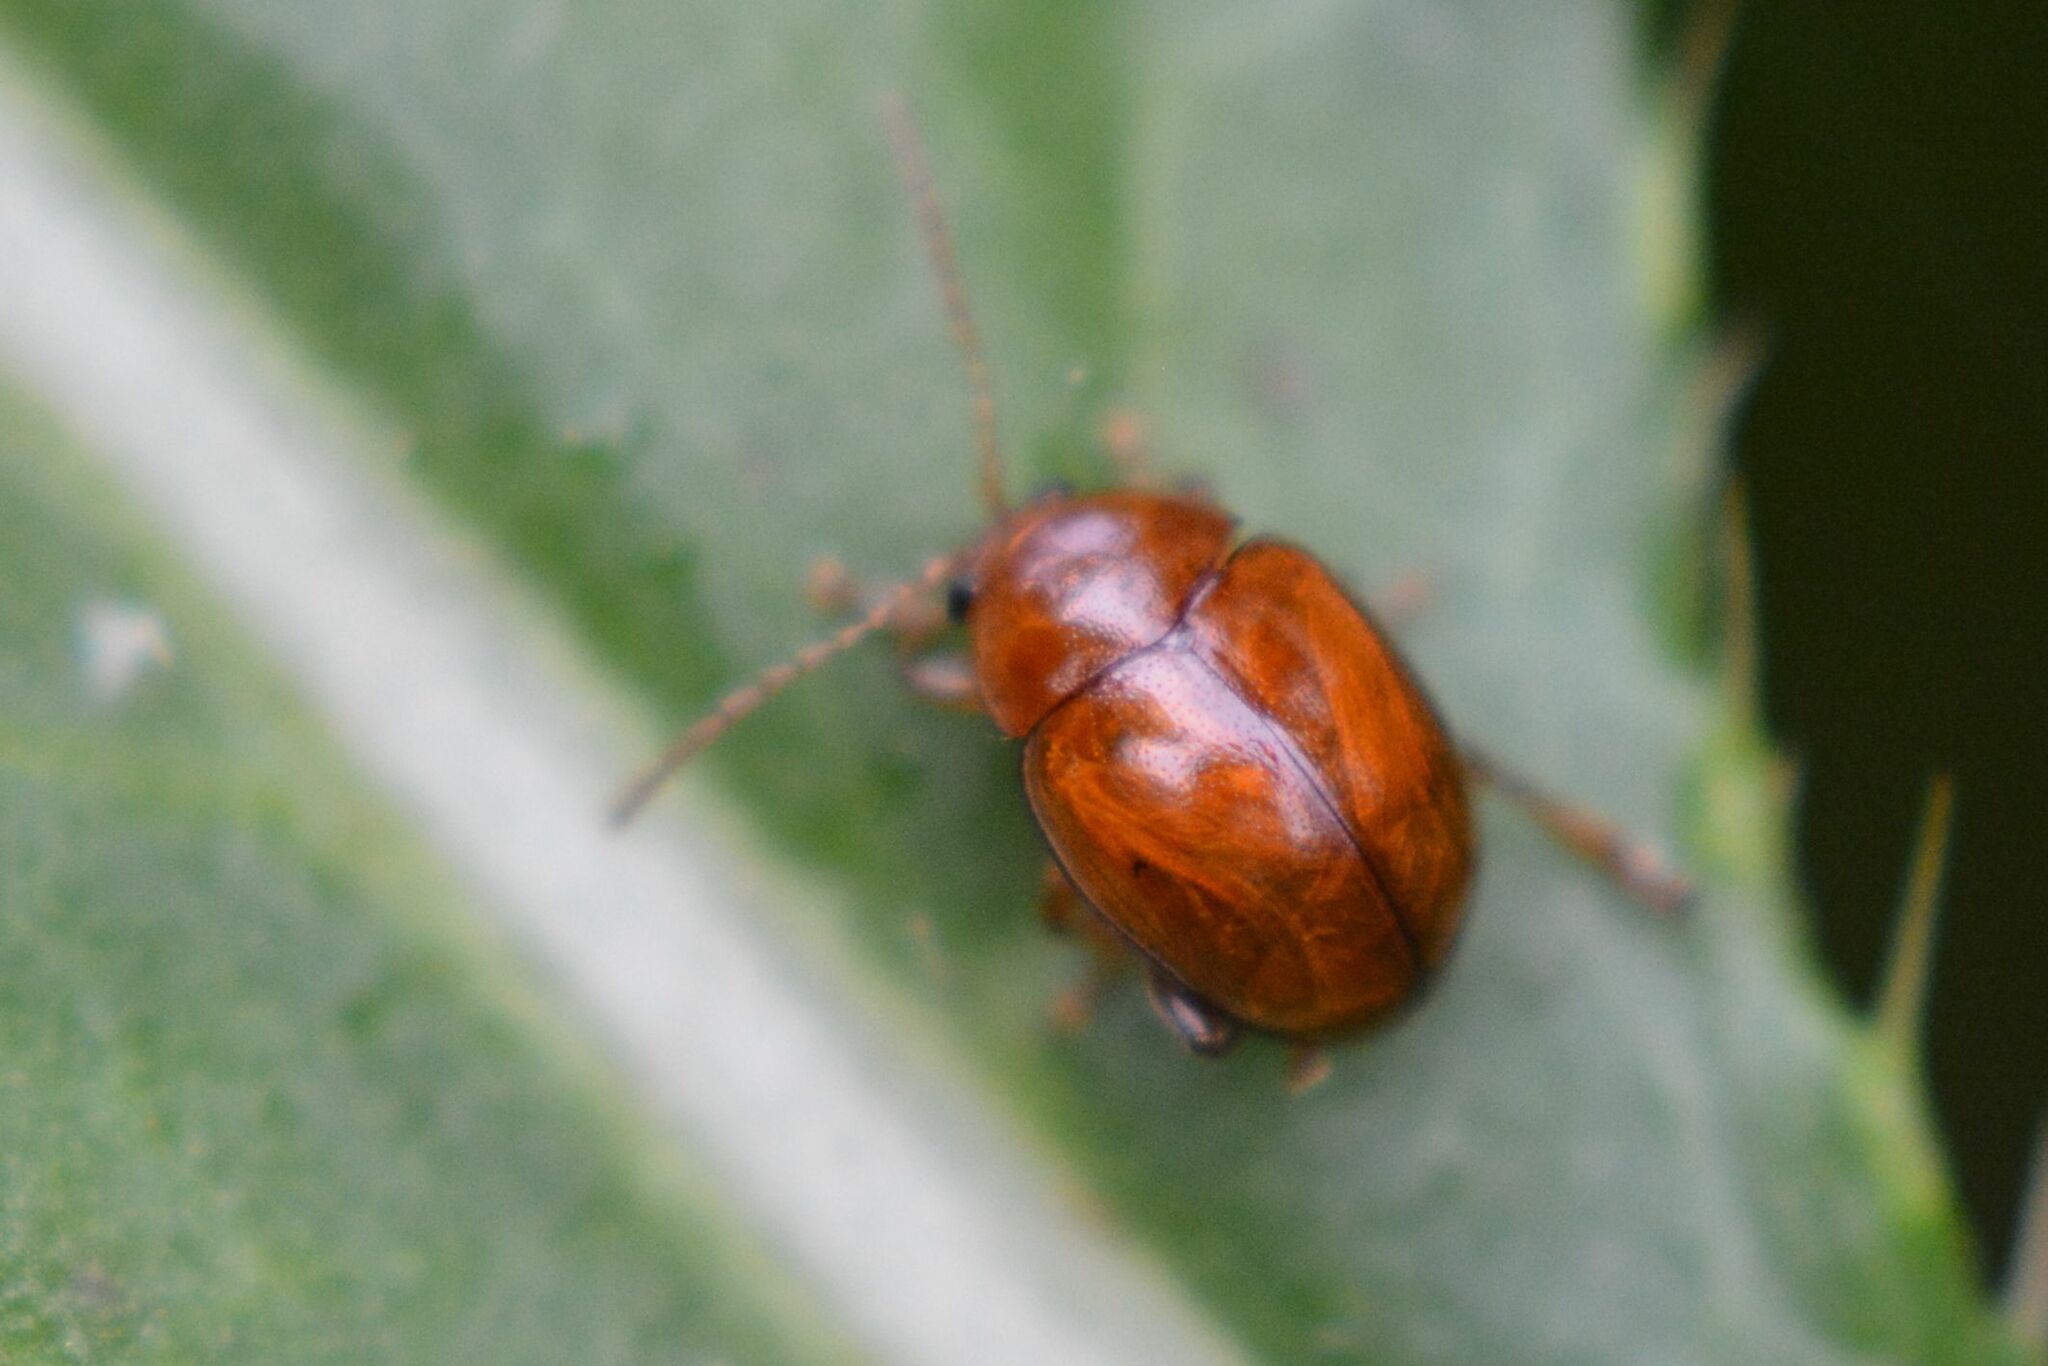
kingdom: Animalia
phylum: Arthropoda
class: Insecta
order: Coleoptera
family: Chrysomelidae
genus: Pistosia
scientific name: Pistosia testacea
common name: Leaf beetle
